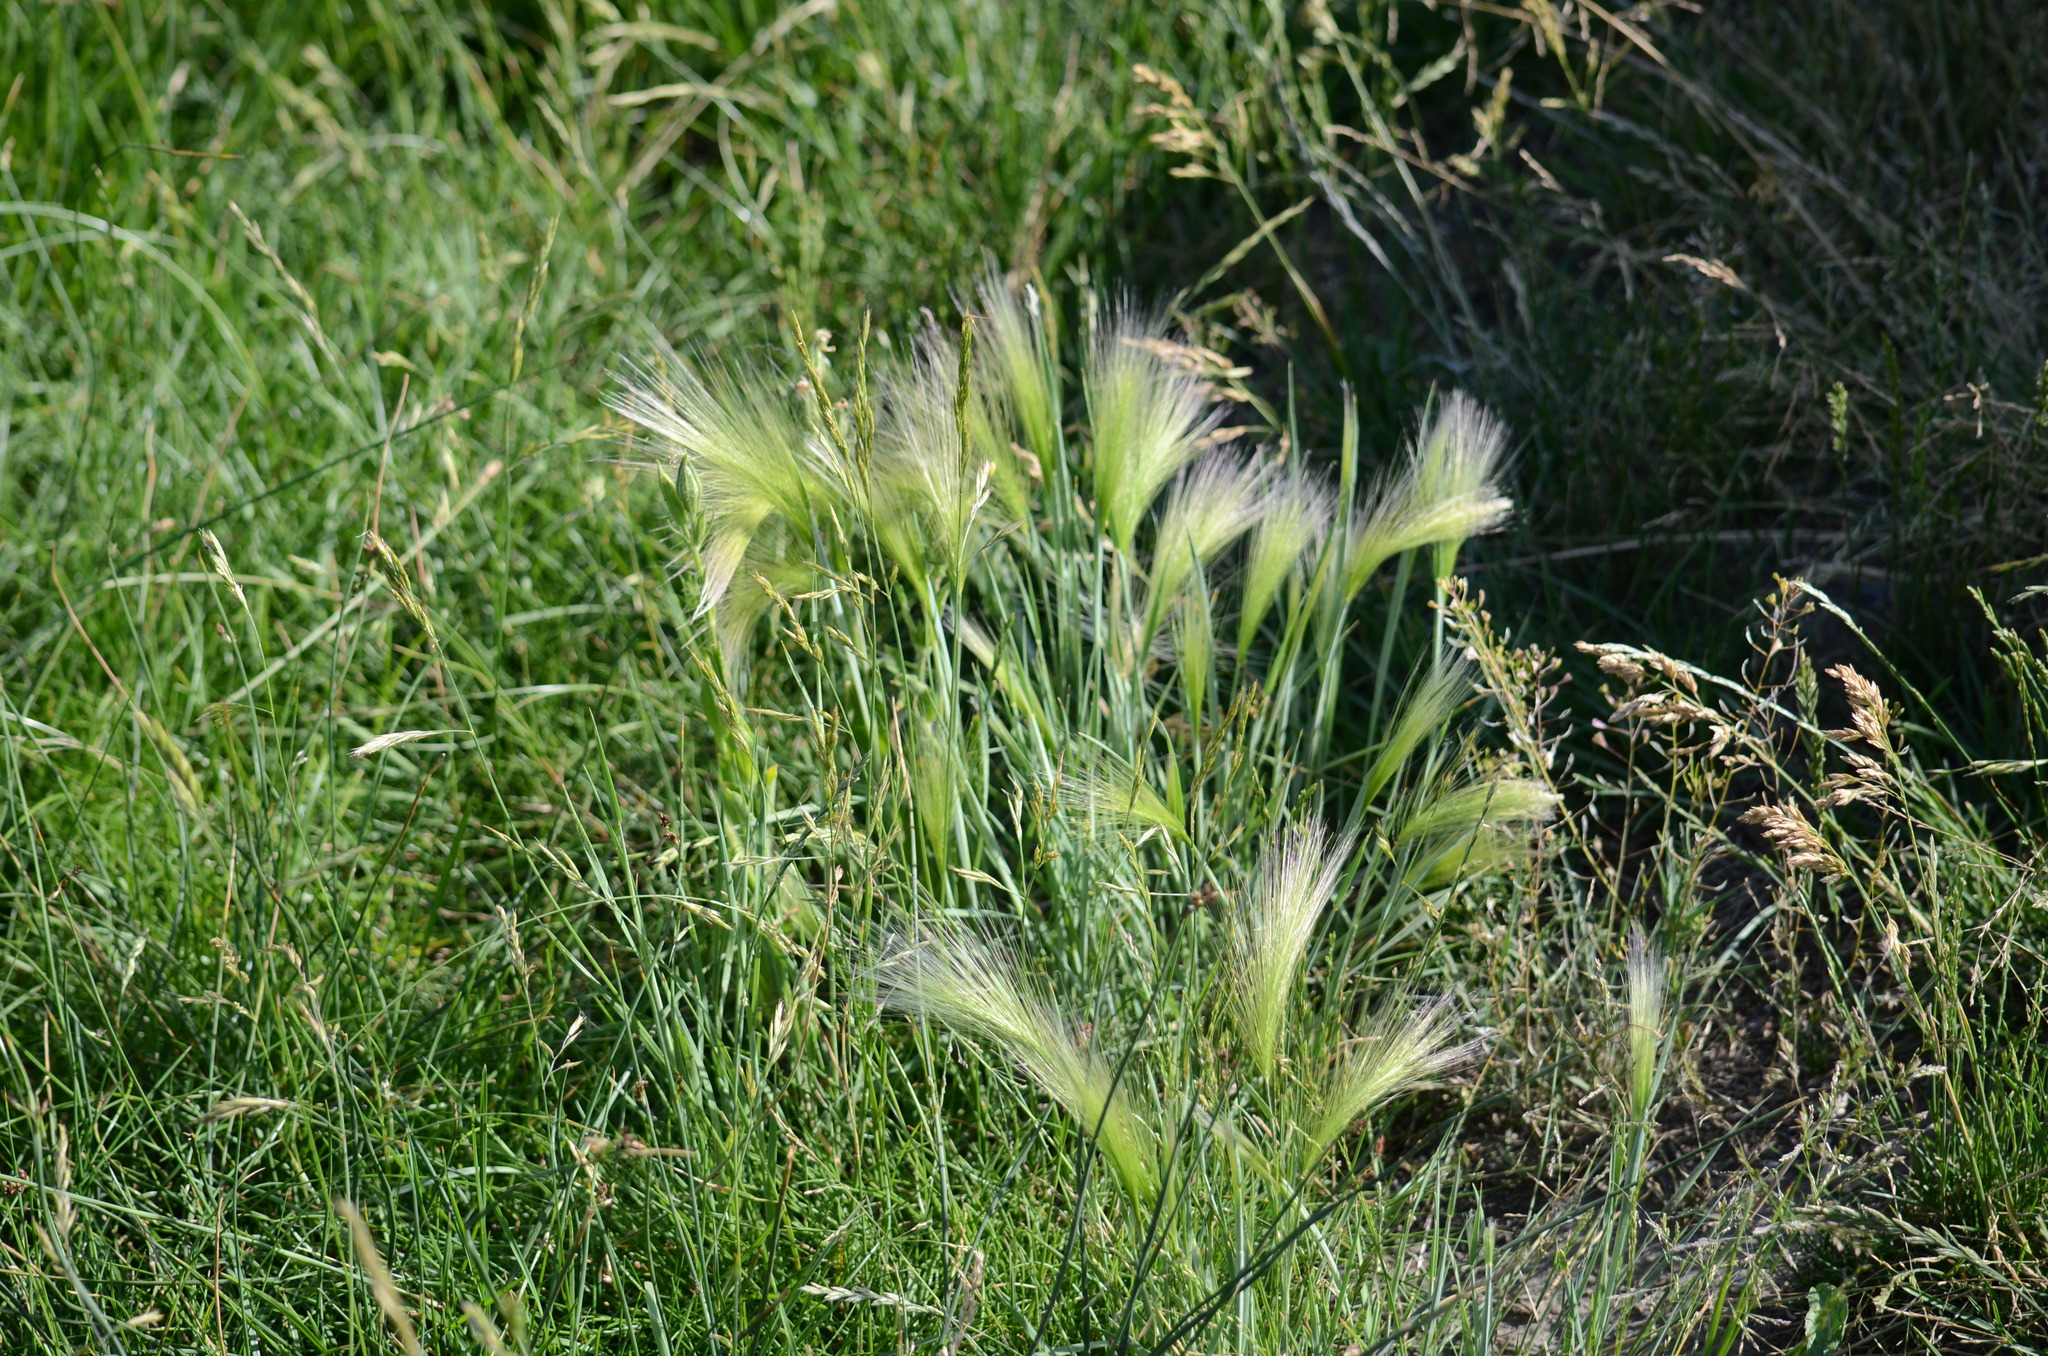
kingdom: Plantae
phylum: Tracheophyta
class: Liliopsida
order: Poales
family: Poaceae
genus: Hordeum
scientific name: Hordeum jubatum
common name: Foxtail barley
